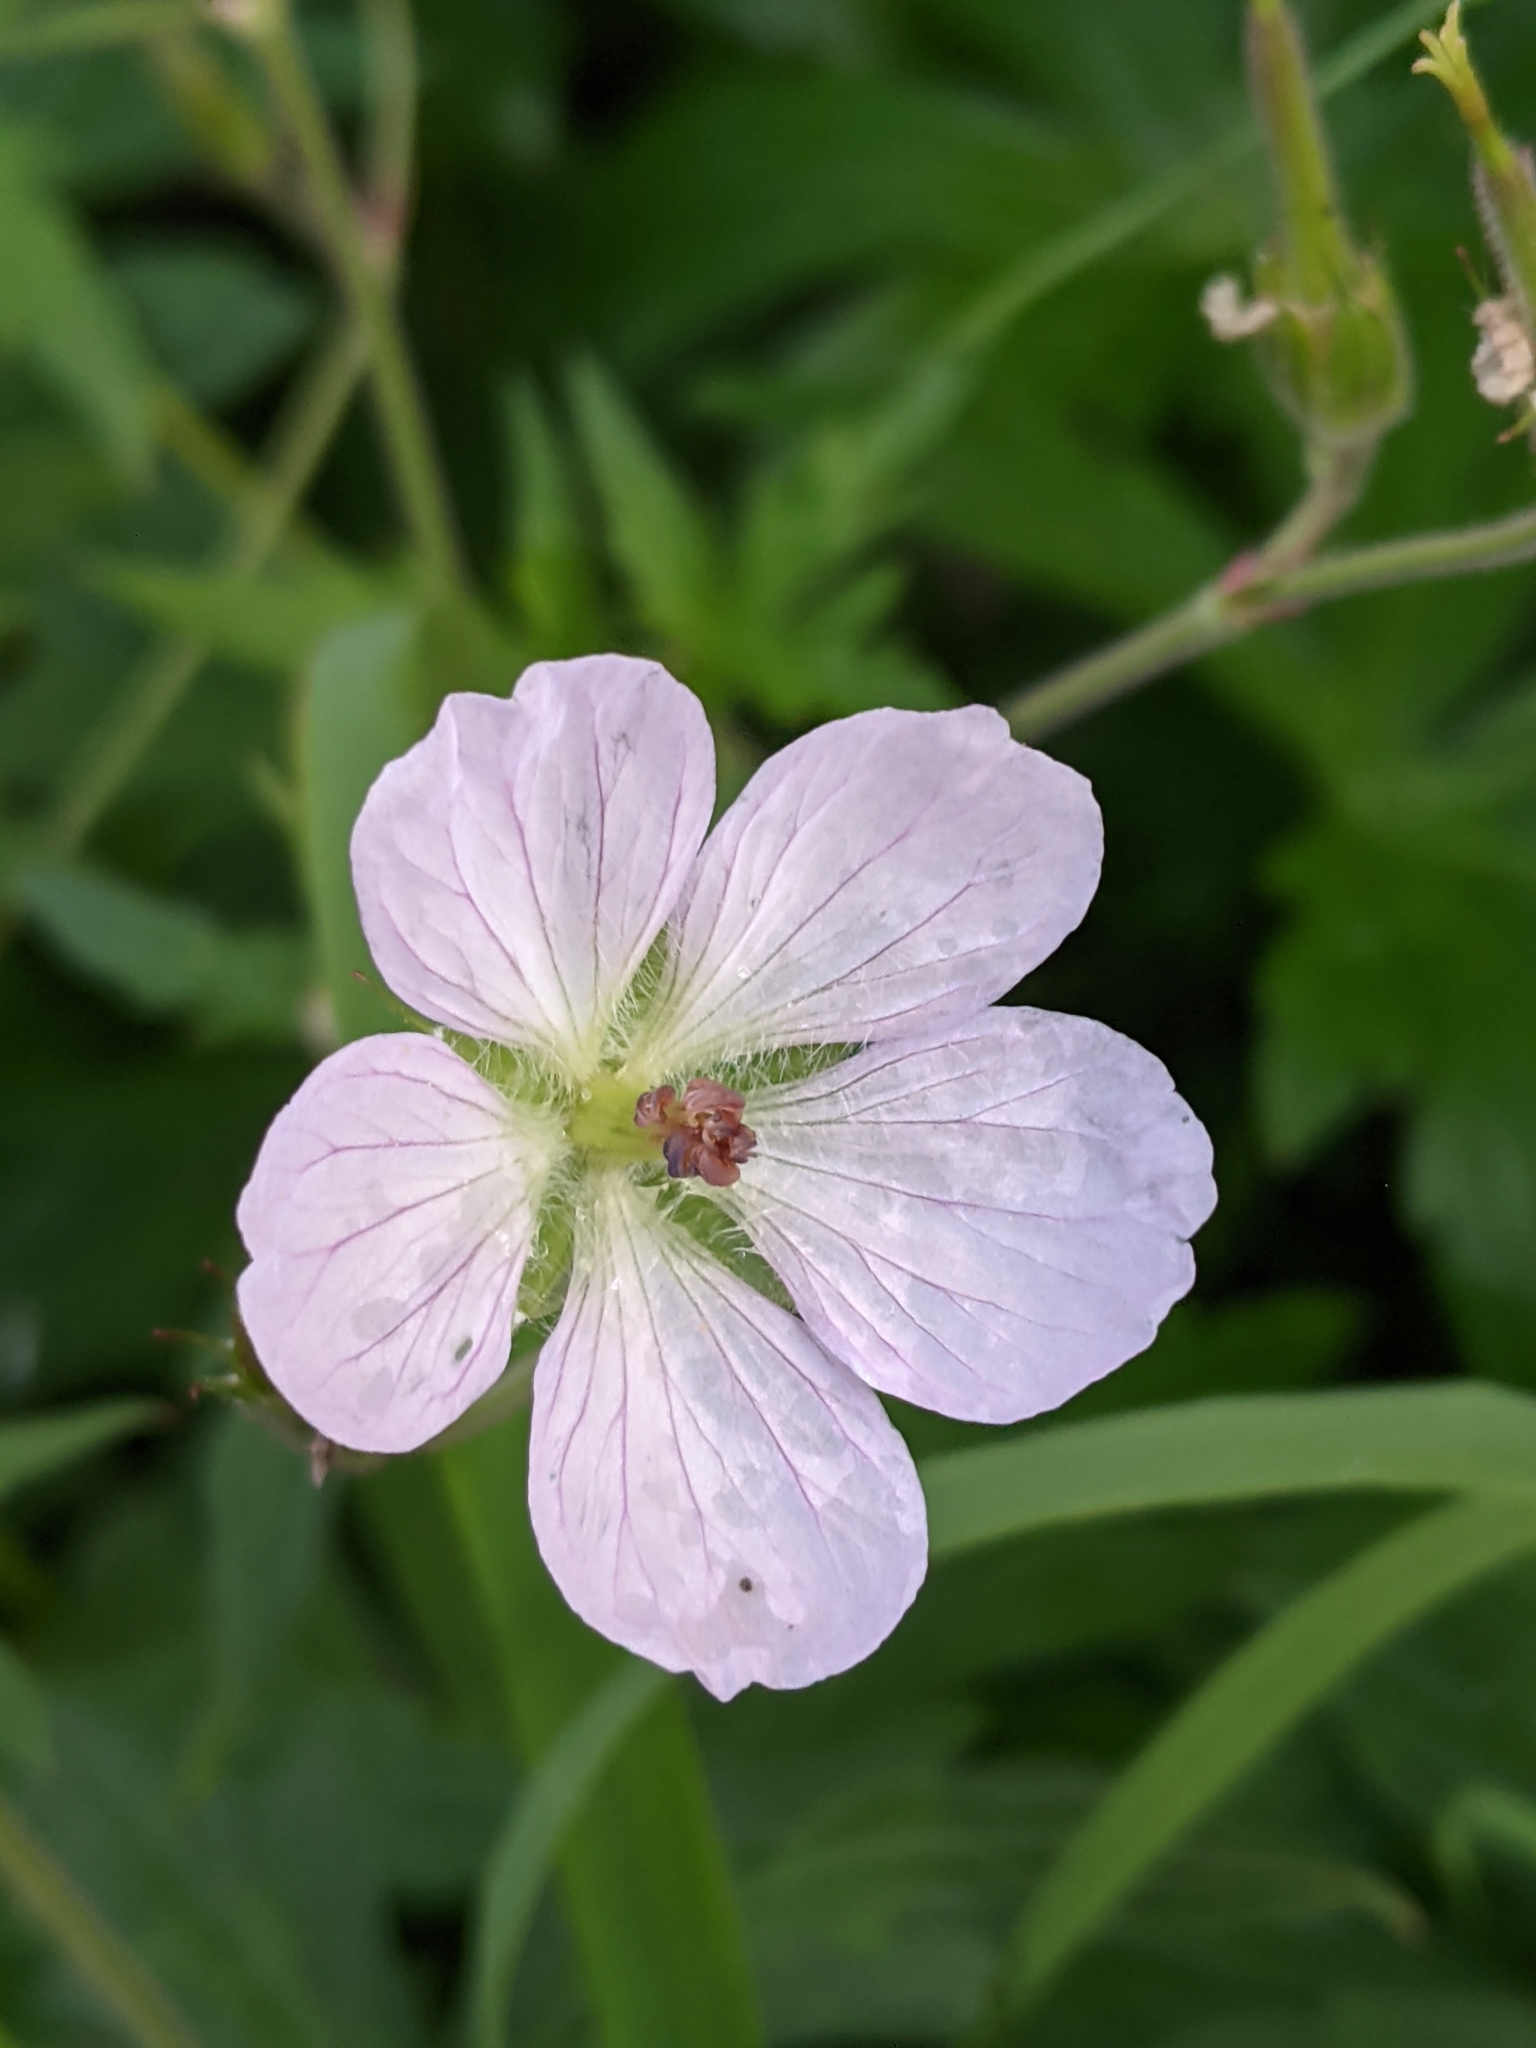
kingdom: Plantae
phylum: Tracheophyta
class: Magnoliopsida
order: Geraniales
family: Geraniaceae
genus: Geranium
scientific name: Geranium richardsonii
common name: Richardson's crane's-bill
